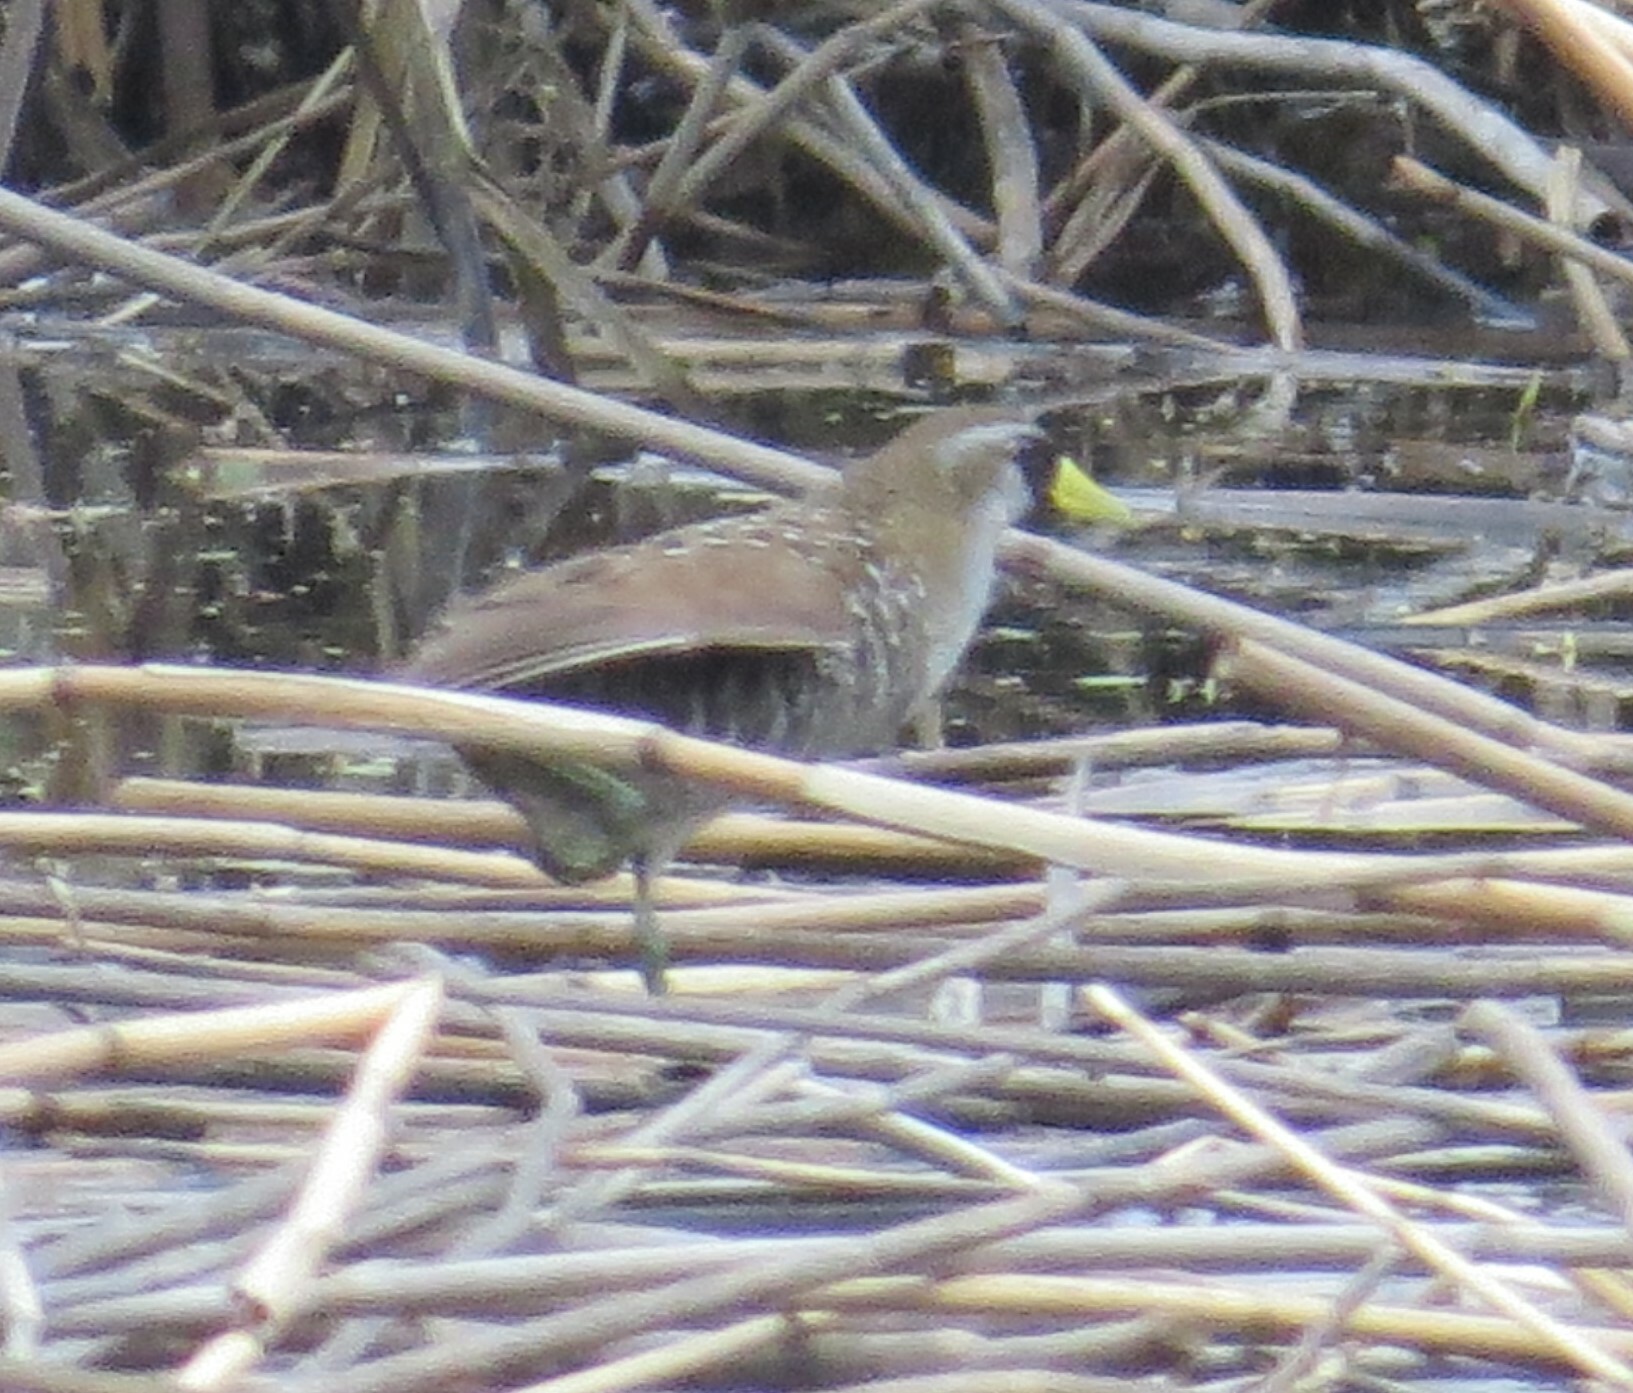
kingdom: Animalia
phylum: Chordata
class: Aves
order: Gruiformes
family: Rallidae
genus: Porzana
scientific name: Porzana carolina
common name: Sora
